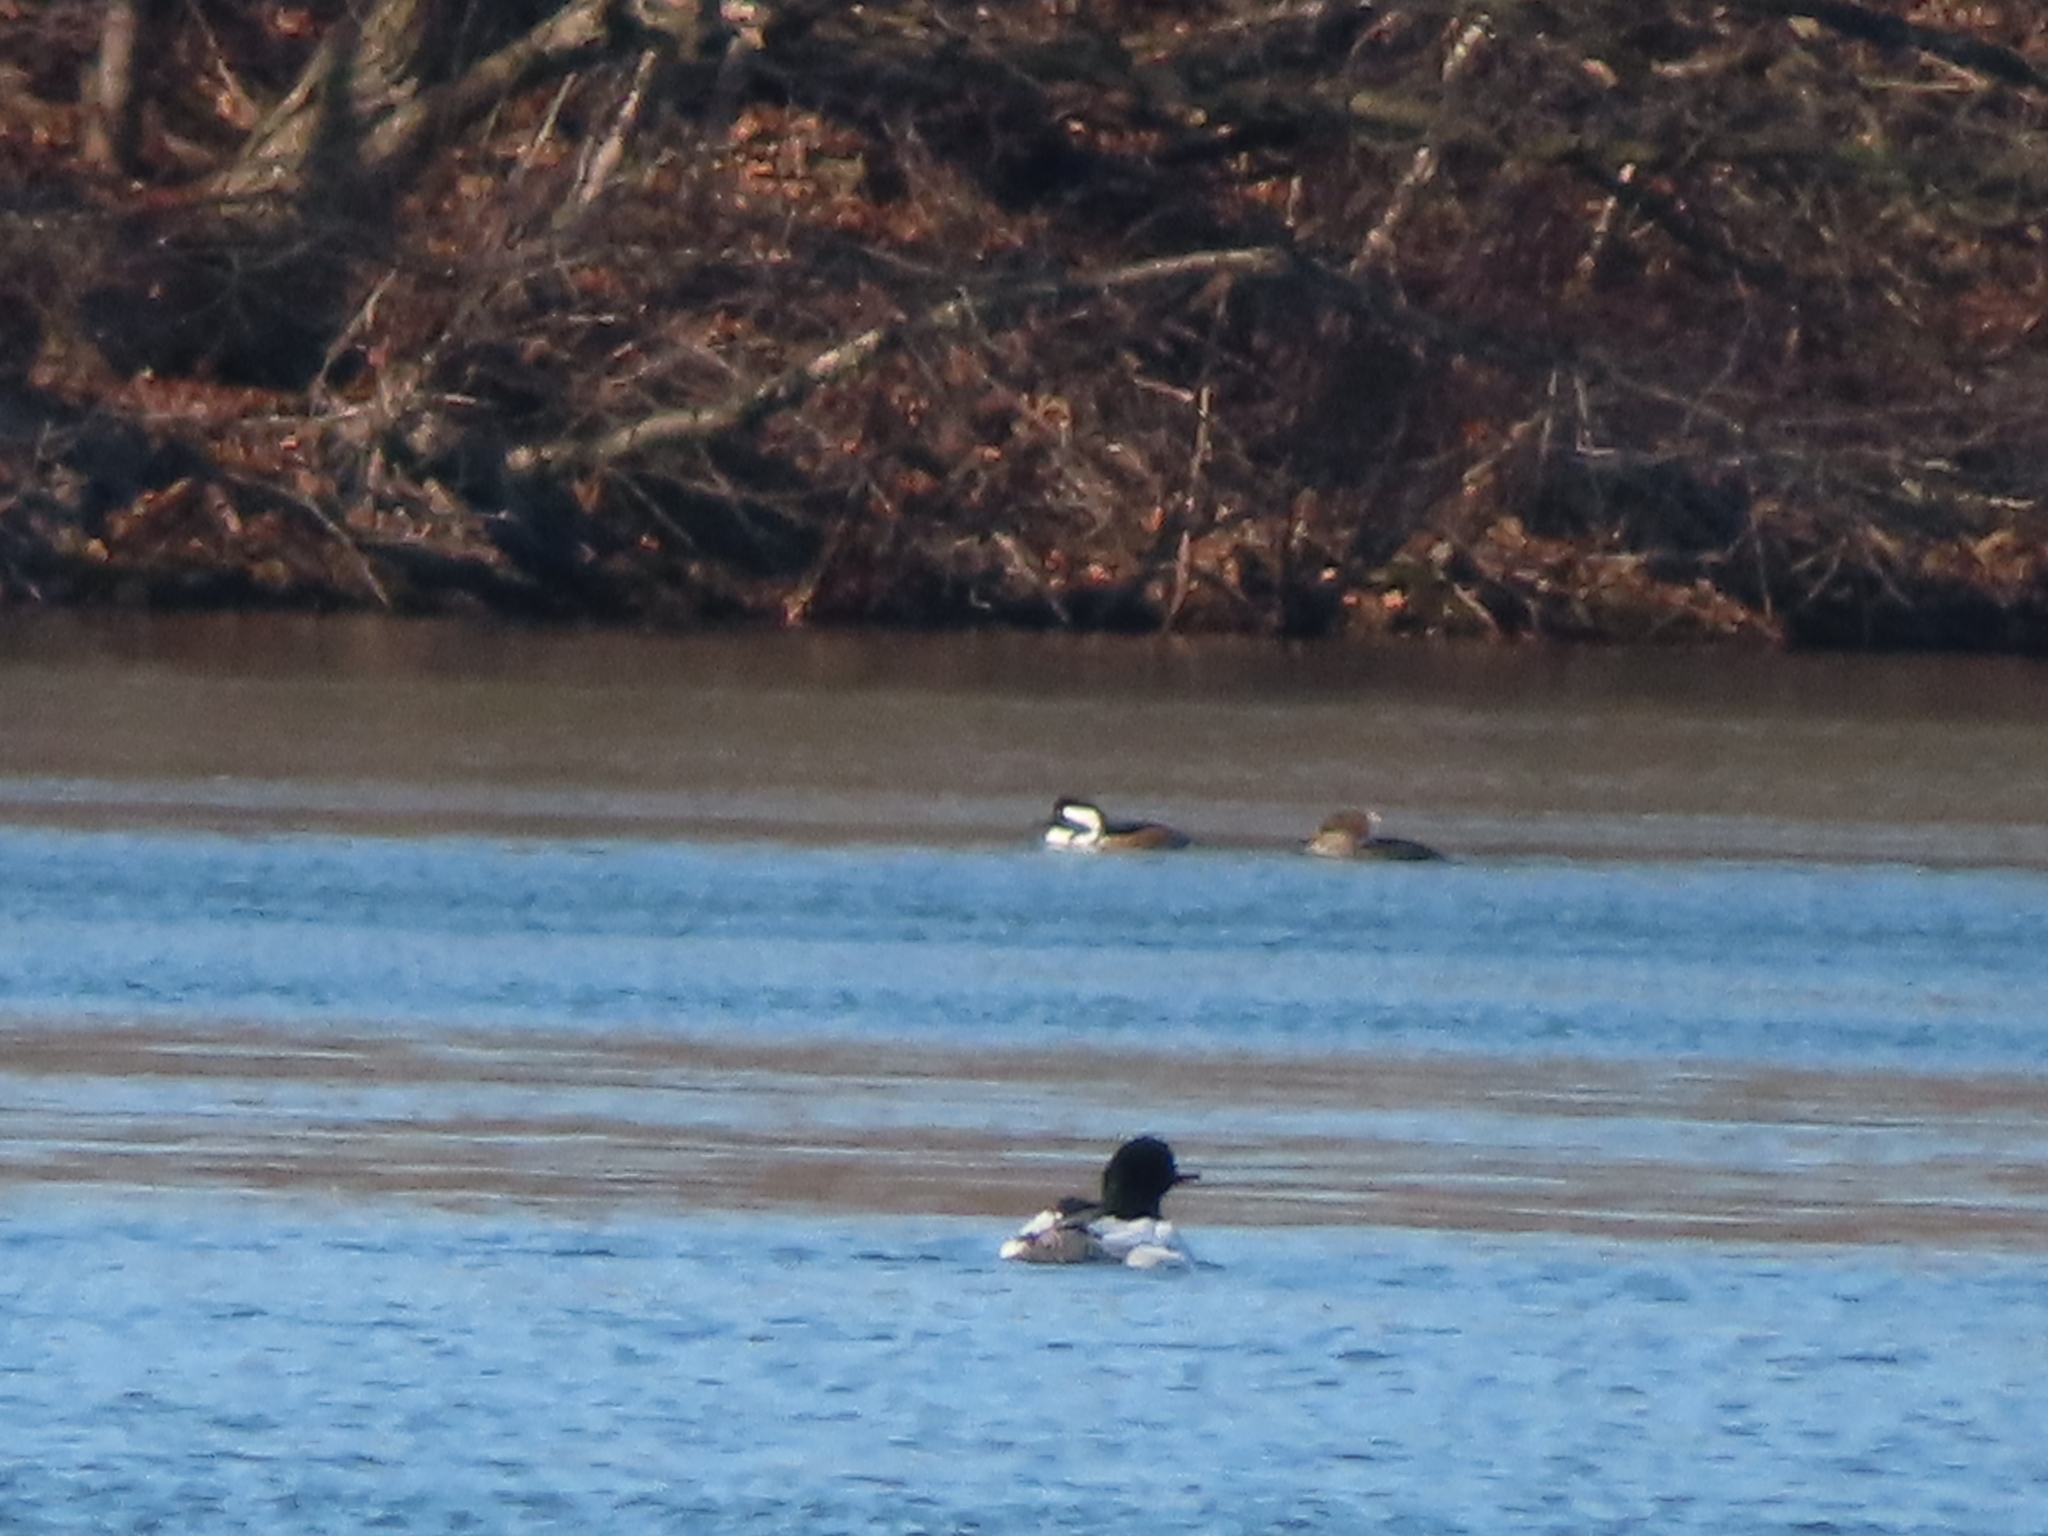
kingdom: Animalia
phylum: Chordata
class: Aves
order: Anseriformes
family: Anatidae
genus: Mergus
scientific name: Mergus merganser
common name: Common merganser
